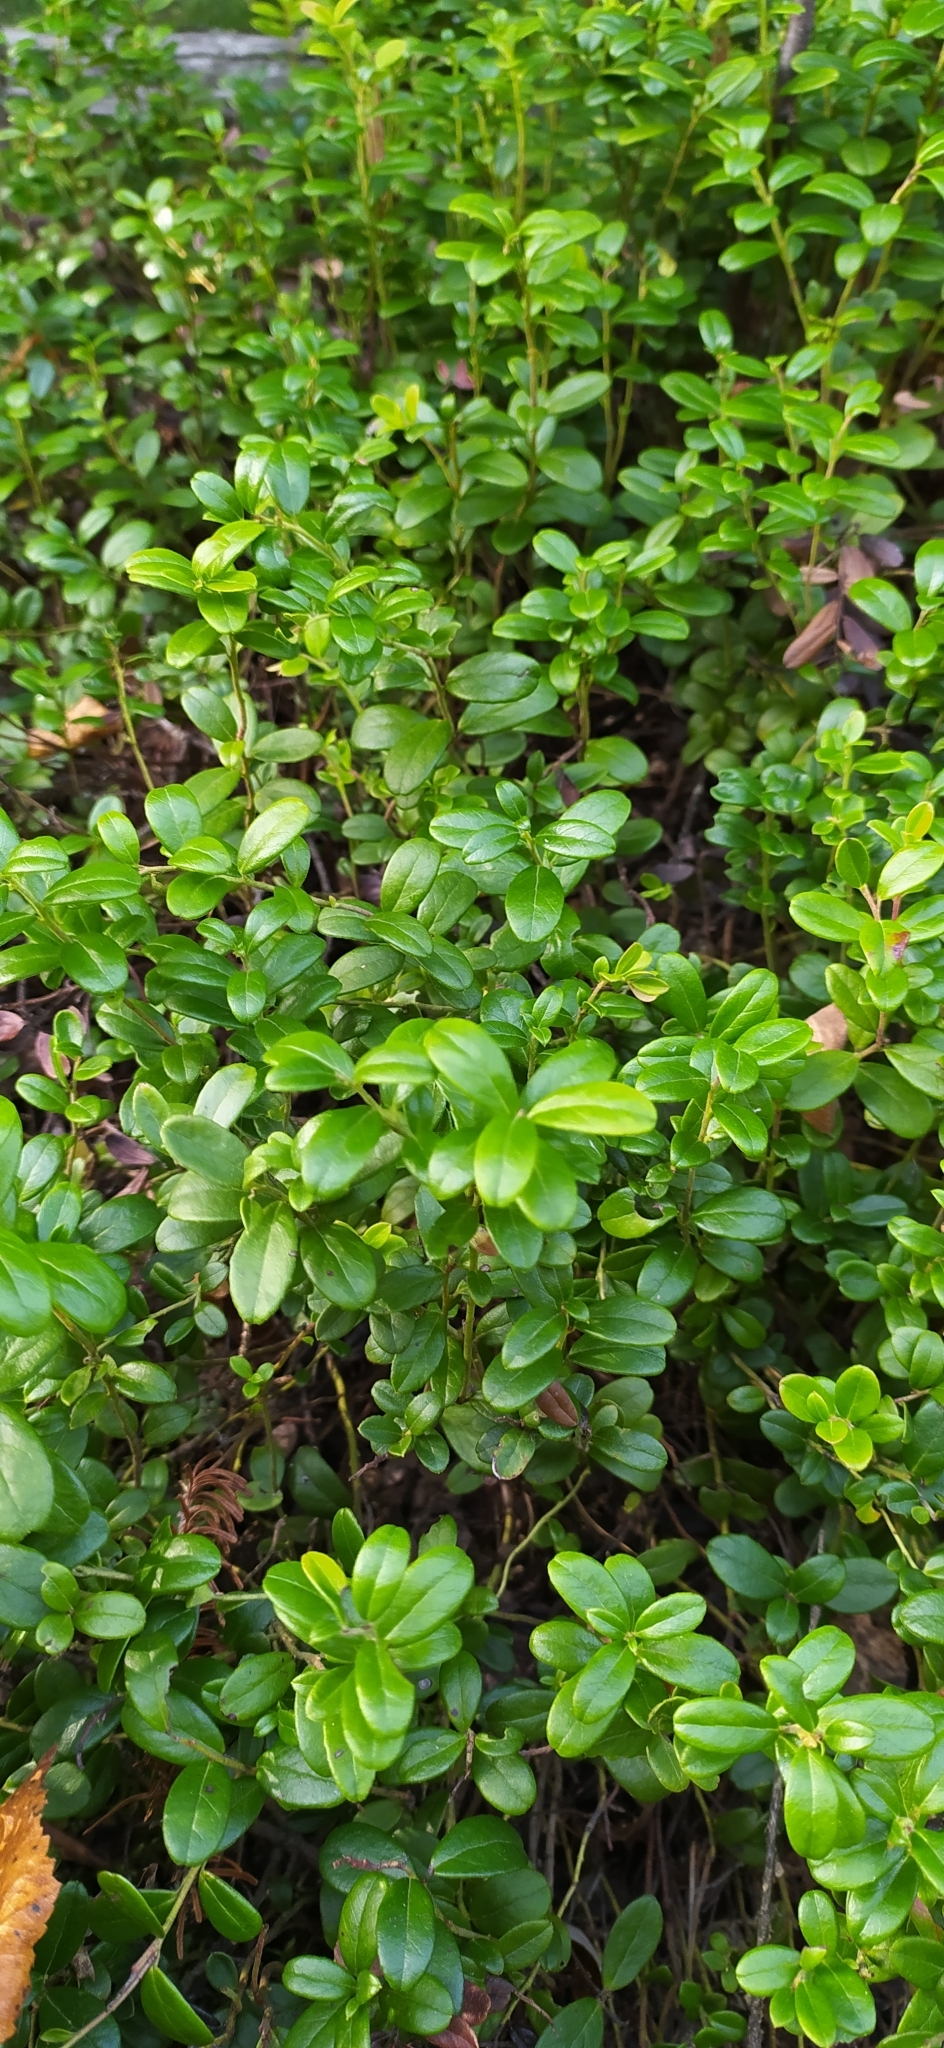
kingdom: Plantae
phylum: Tracheophyta
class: Magnoliopsida
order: Ericales
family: Ericaceae
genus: Vaccinium
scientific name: Vaccinium vitis-idaea
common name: Cowberry
